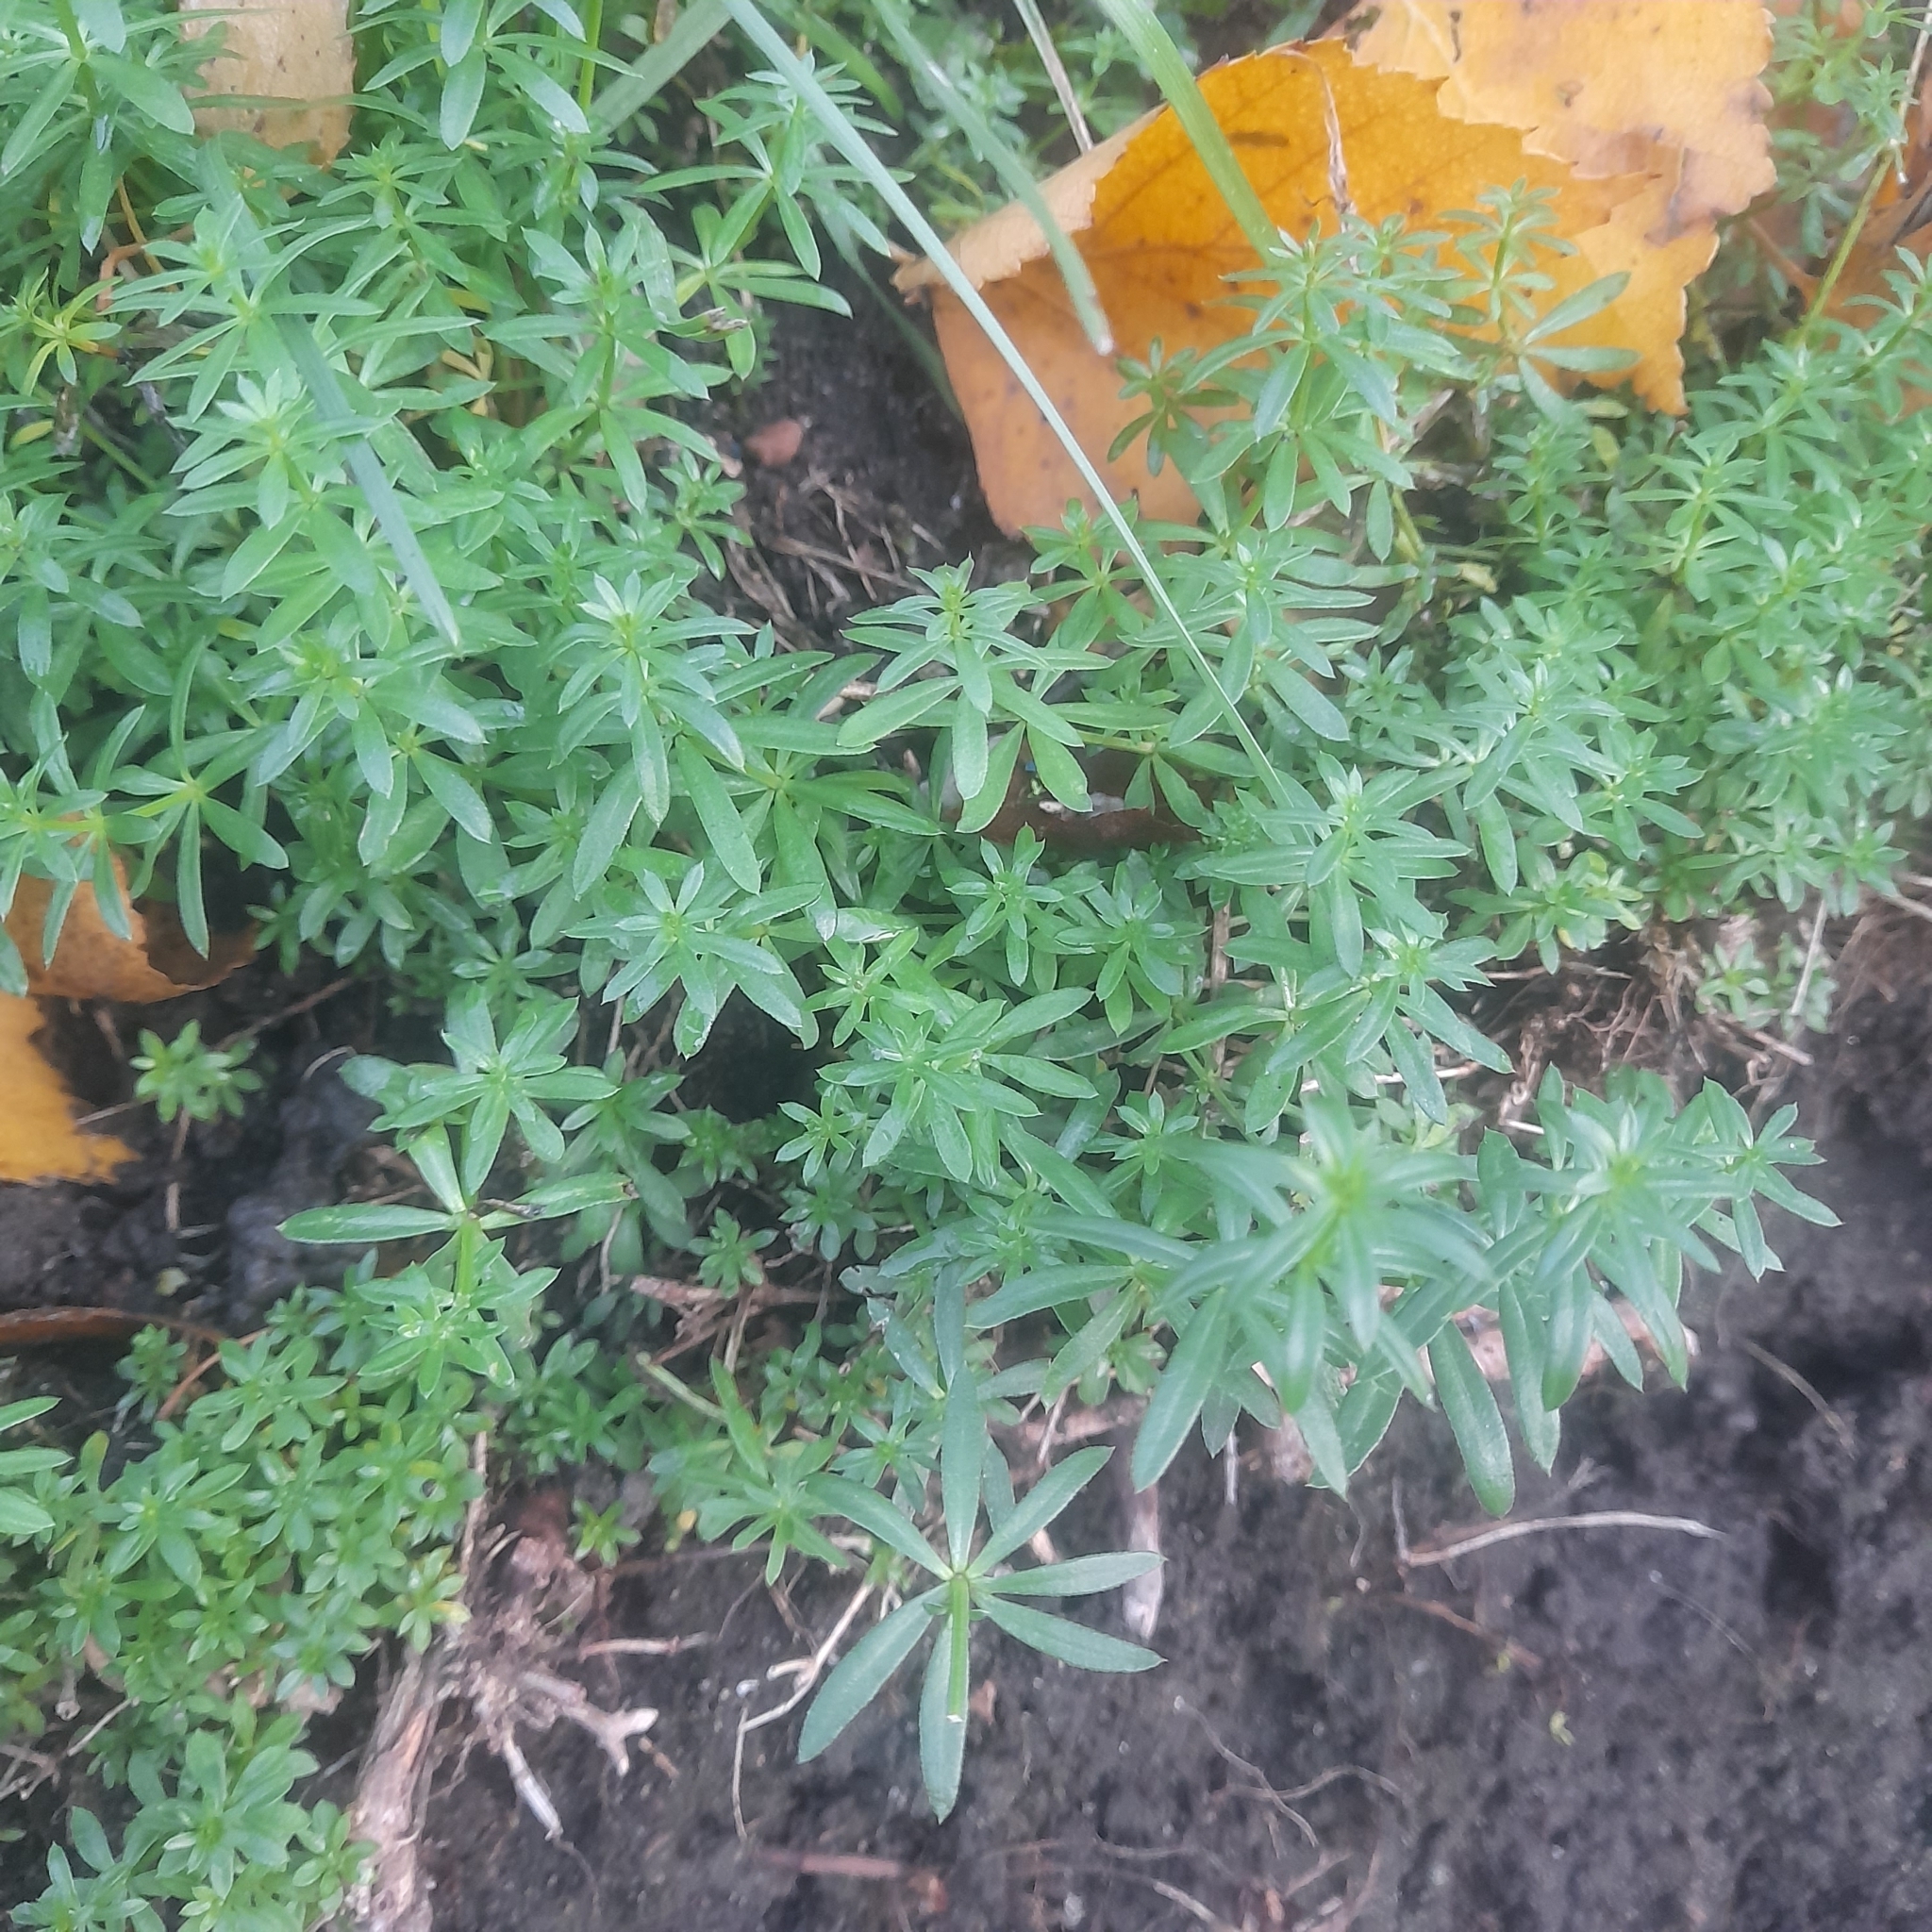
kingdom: Plantae
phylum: Tracheophyta
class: Magnoliopsida
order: Gentianales
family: Rubiaceae
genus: Galium
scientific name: Galium mollugo
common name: Hedge bedstraw
